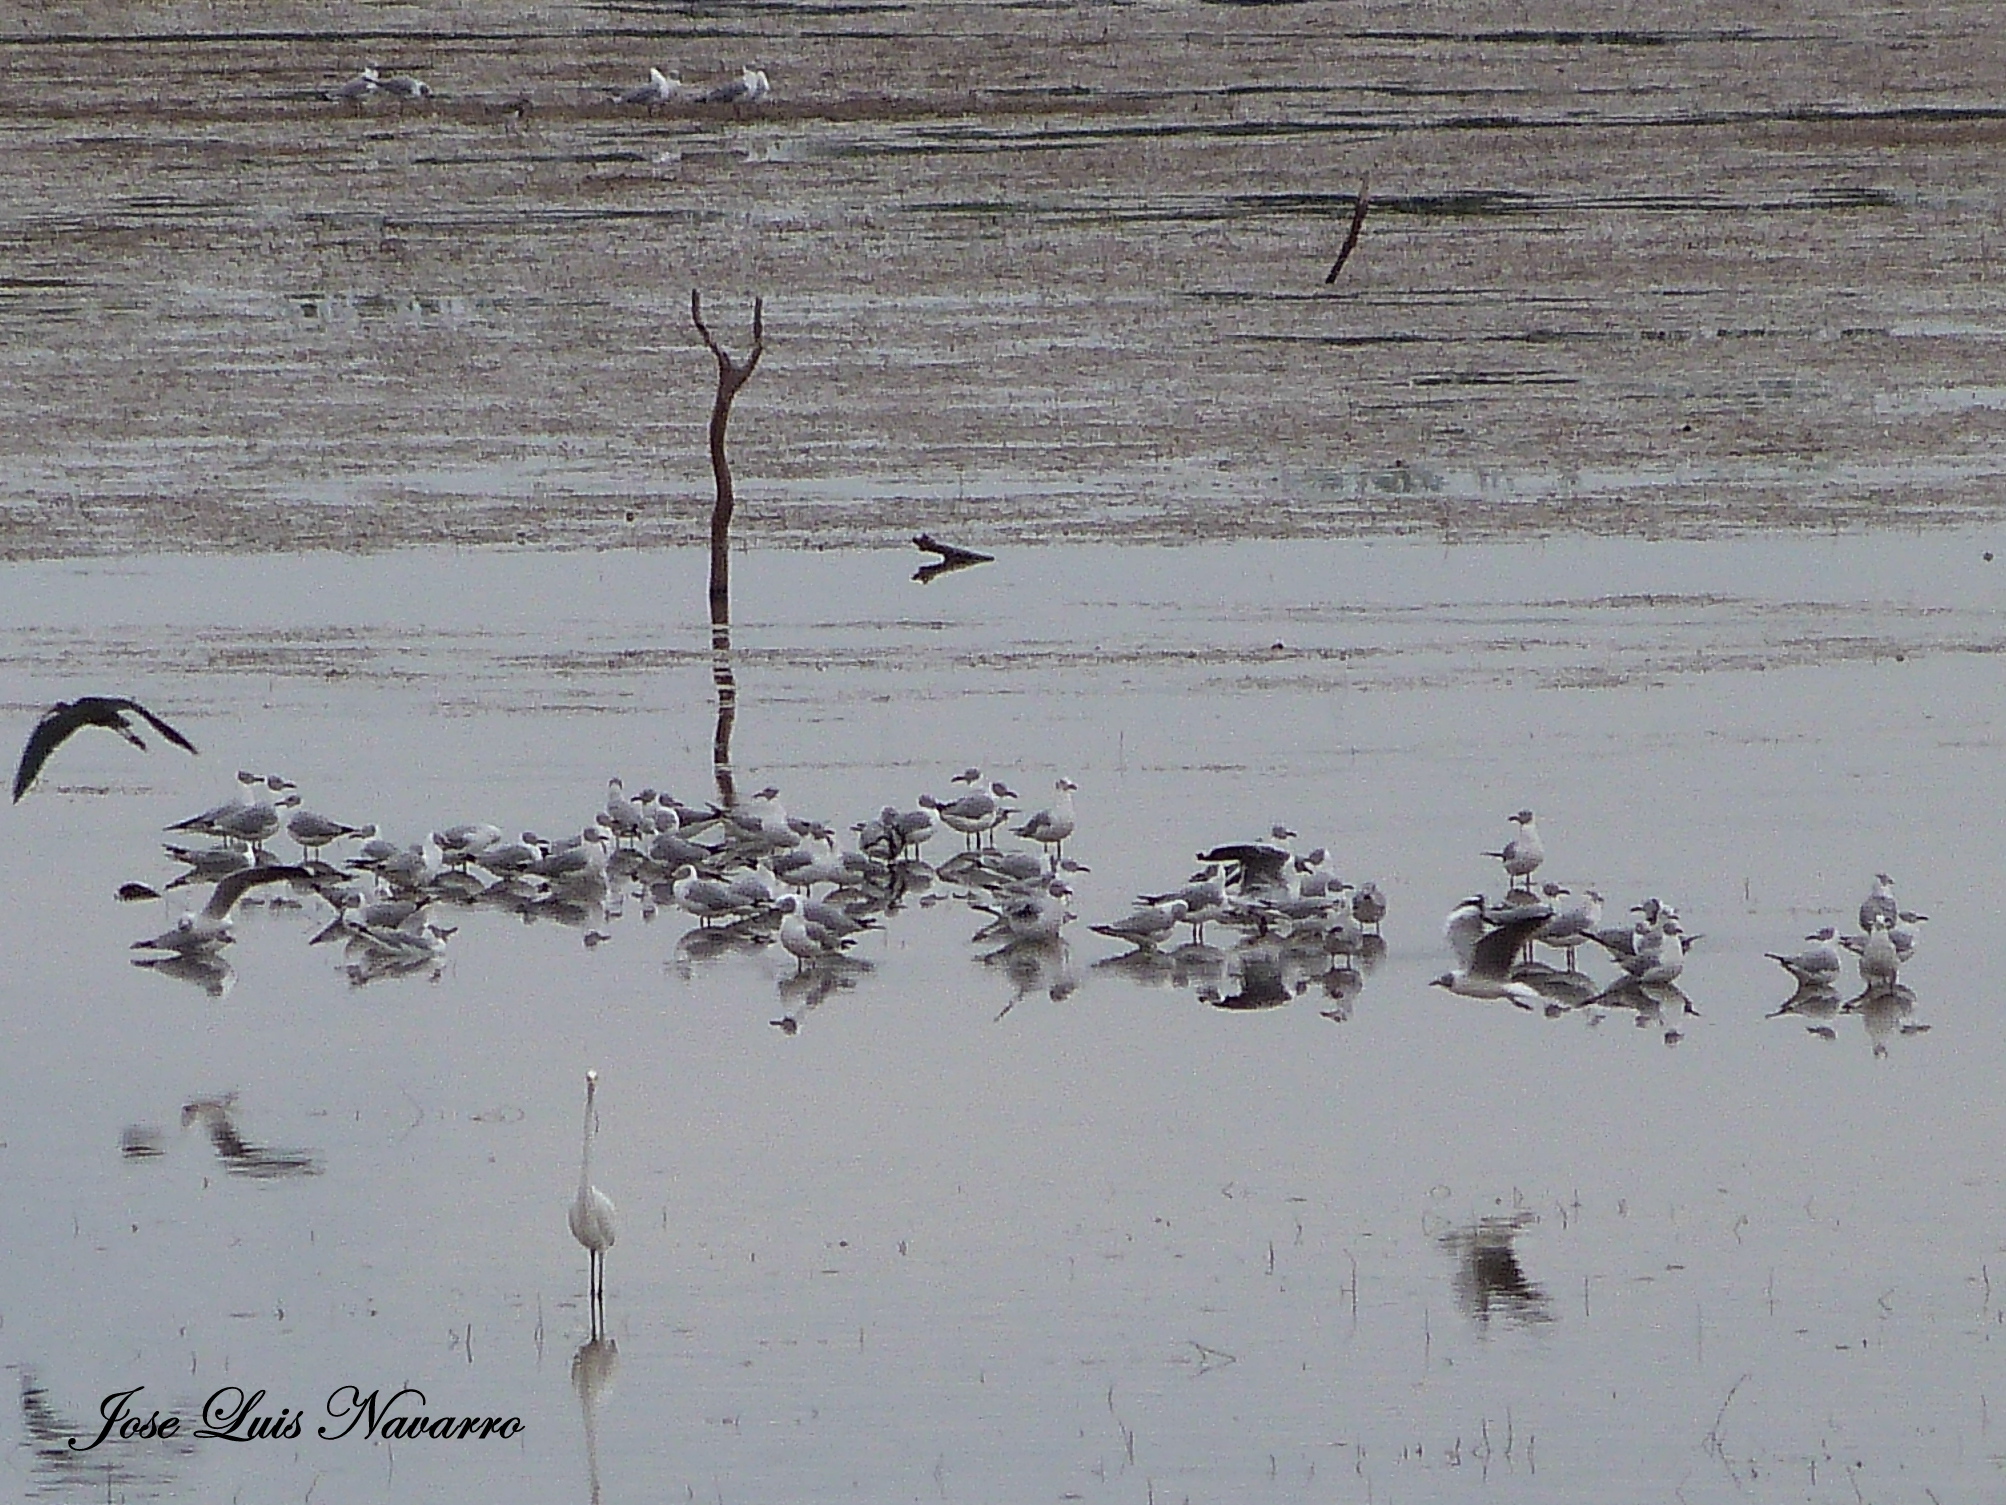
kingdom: Animalia
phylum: Chordata
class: Aves
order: Charadriiformes
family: Laridae
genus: Chroicocephalus
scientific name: Chroicocephalus cirrocephalus
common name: Grey-headed gull
